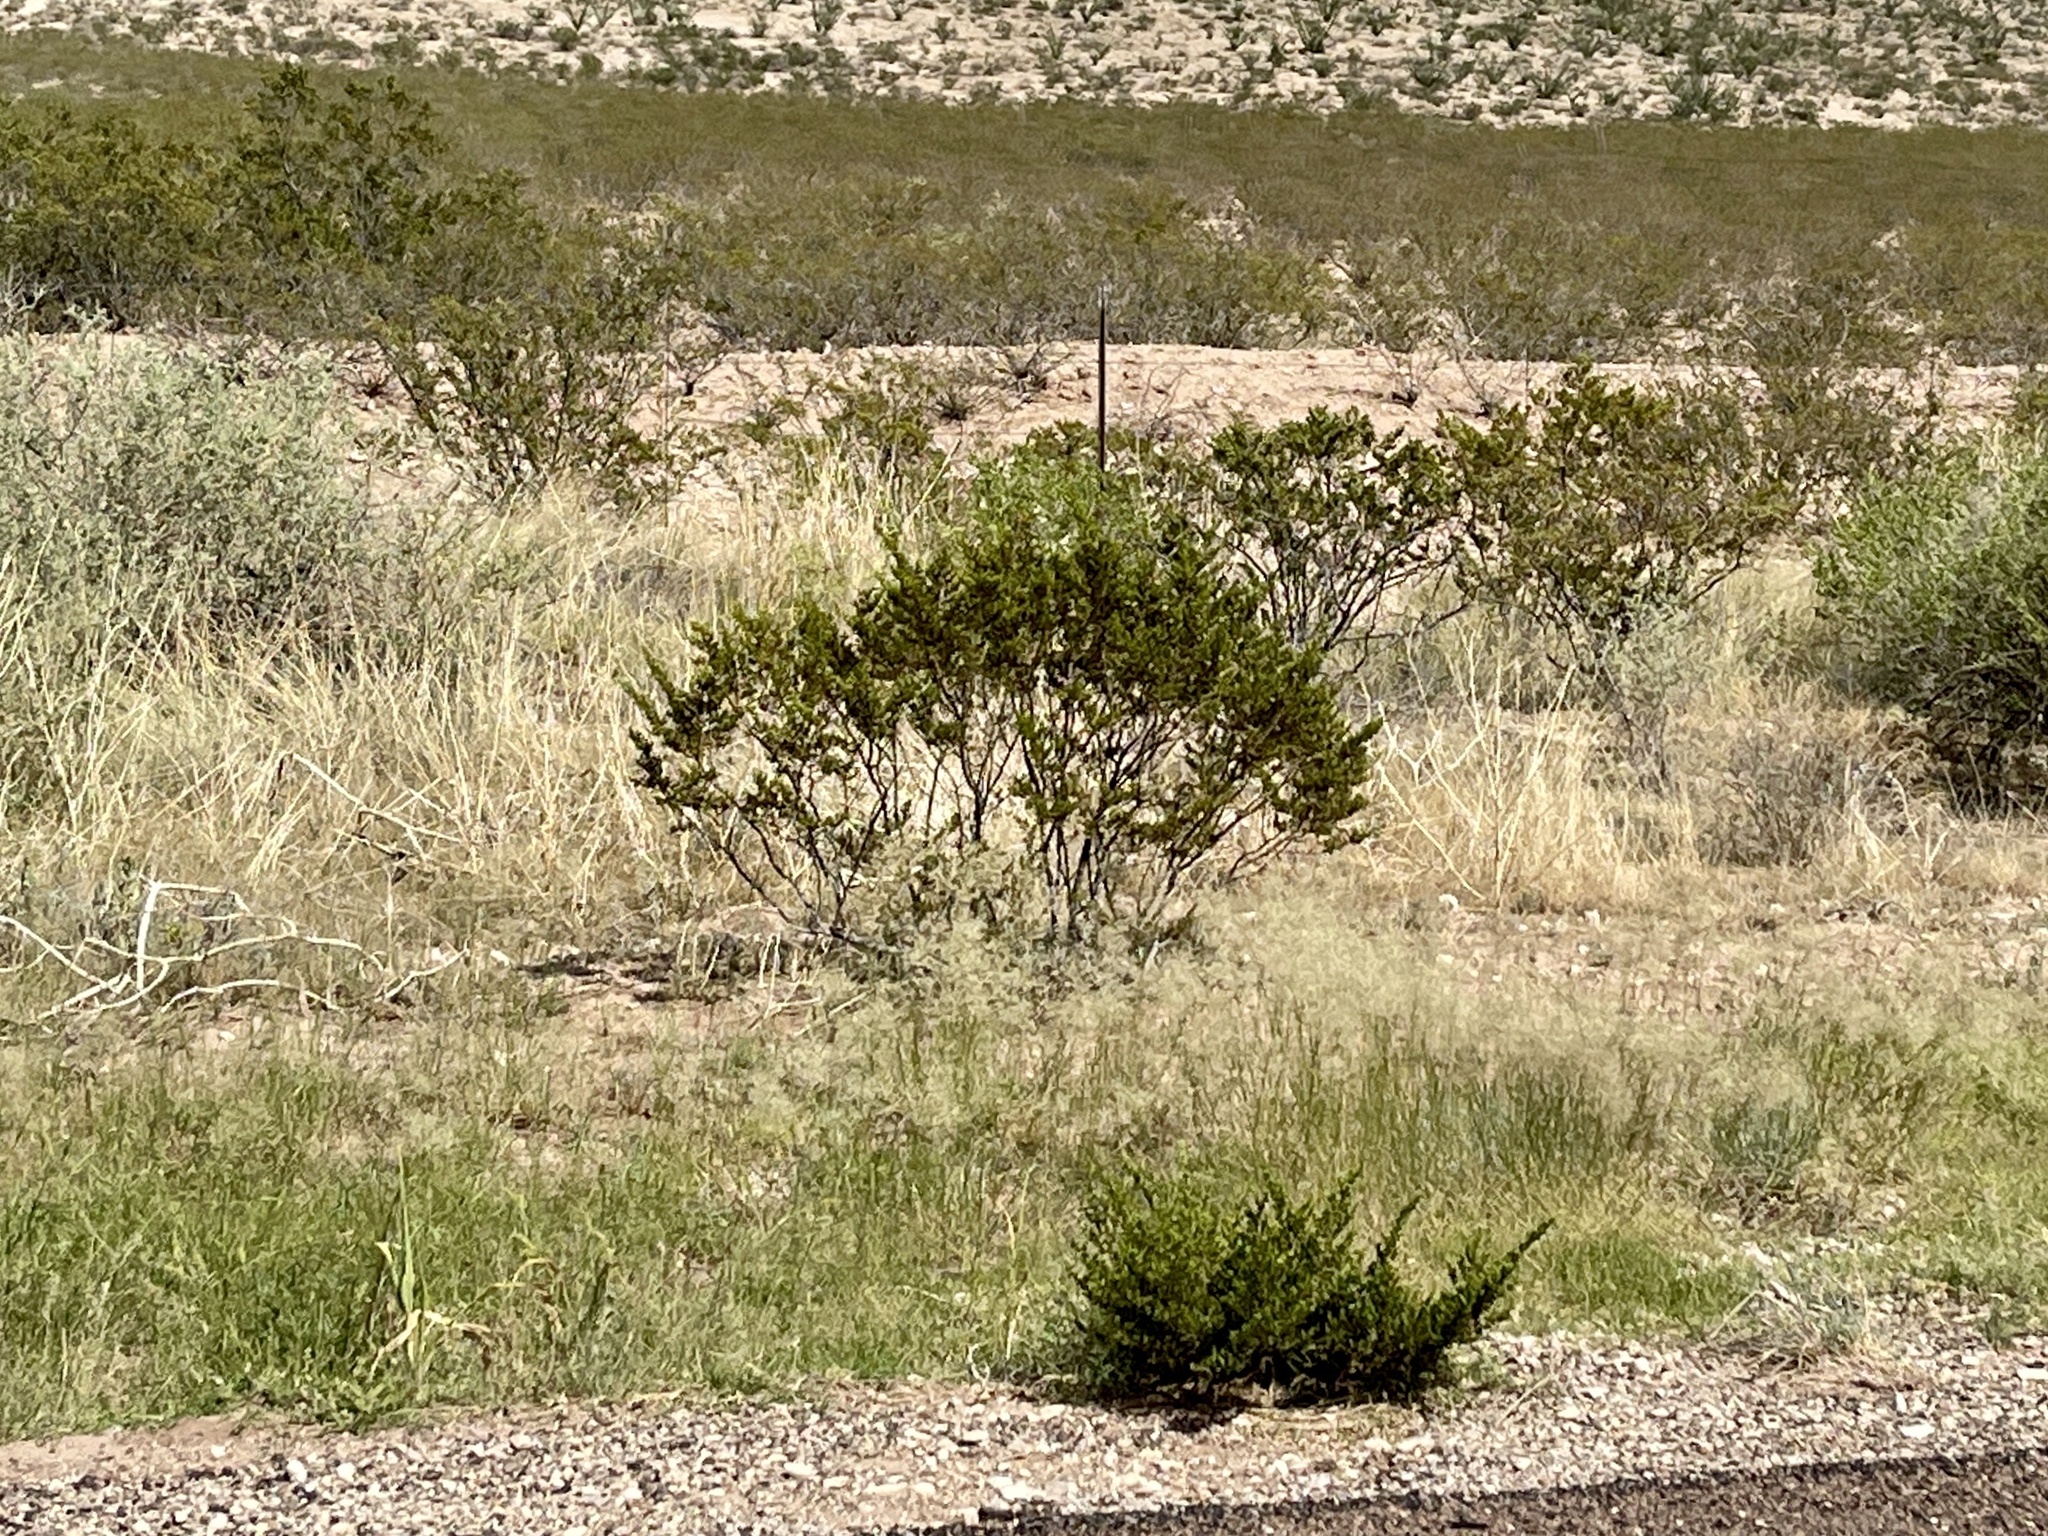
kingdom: Plantae
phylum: Tracheophyta
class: Magnoliopsida
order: Zygophyllales
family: Zygophyllaceae
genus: Larrea
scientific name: Larrea tridentata
